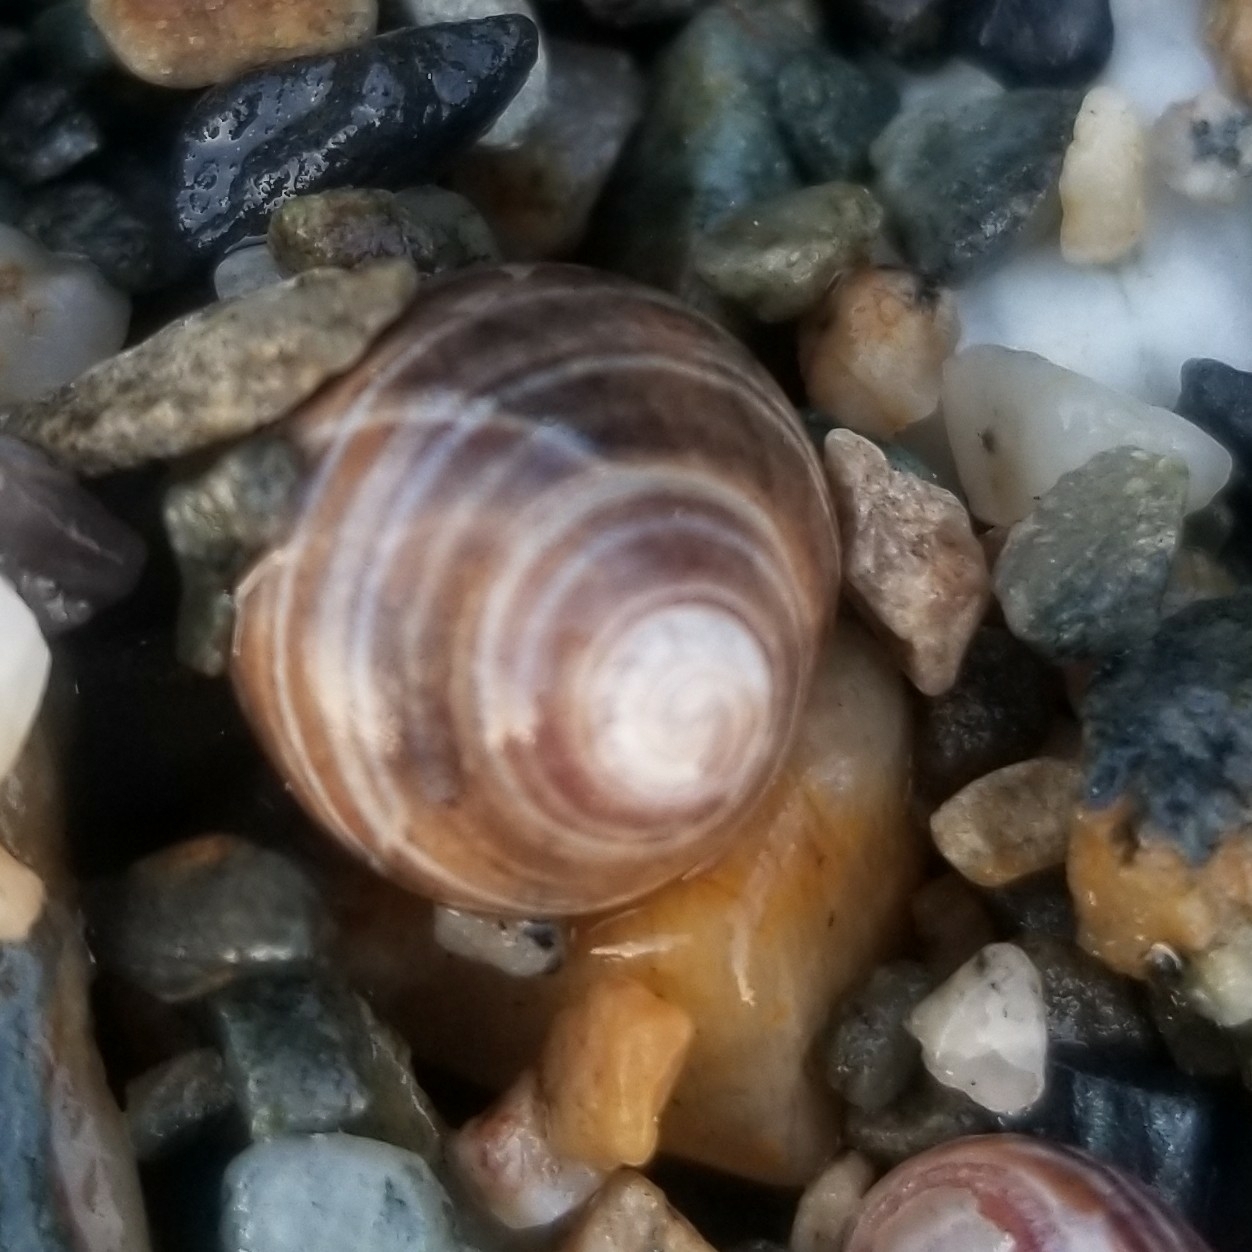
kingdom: Animalia
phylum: Mollusca
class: Gastropoda
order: Littorinimorpha
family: Littorinidae
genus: Littorina
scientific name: Littorina littorea
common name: Common periwinkle
